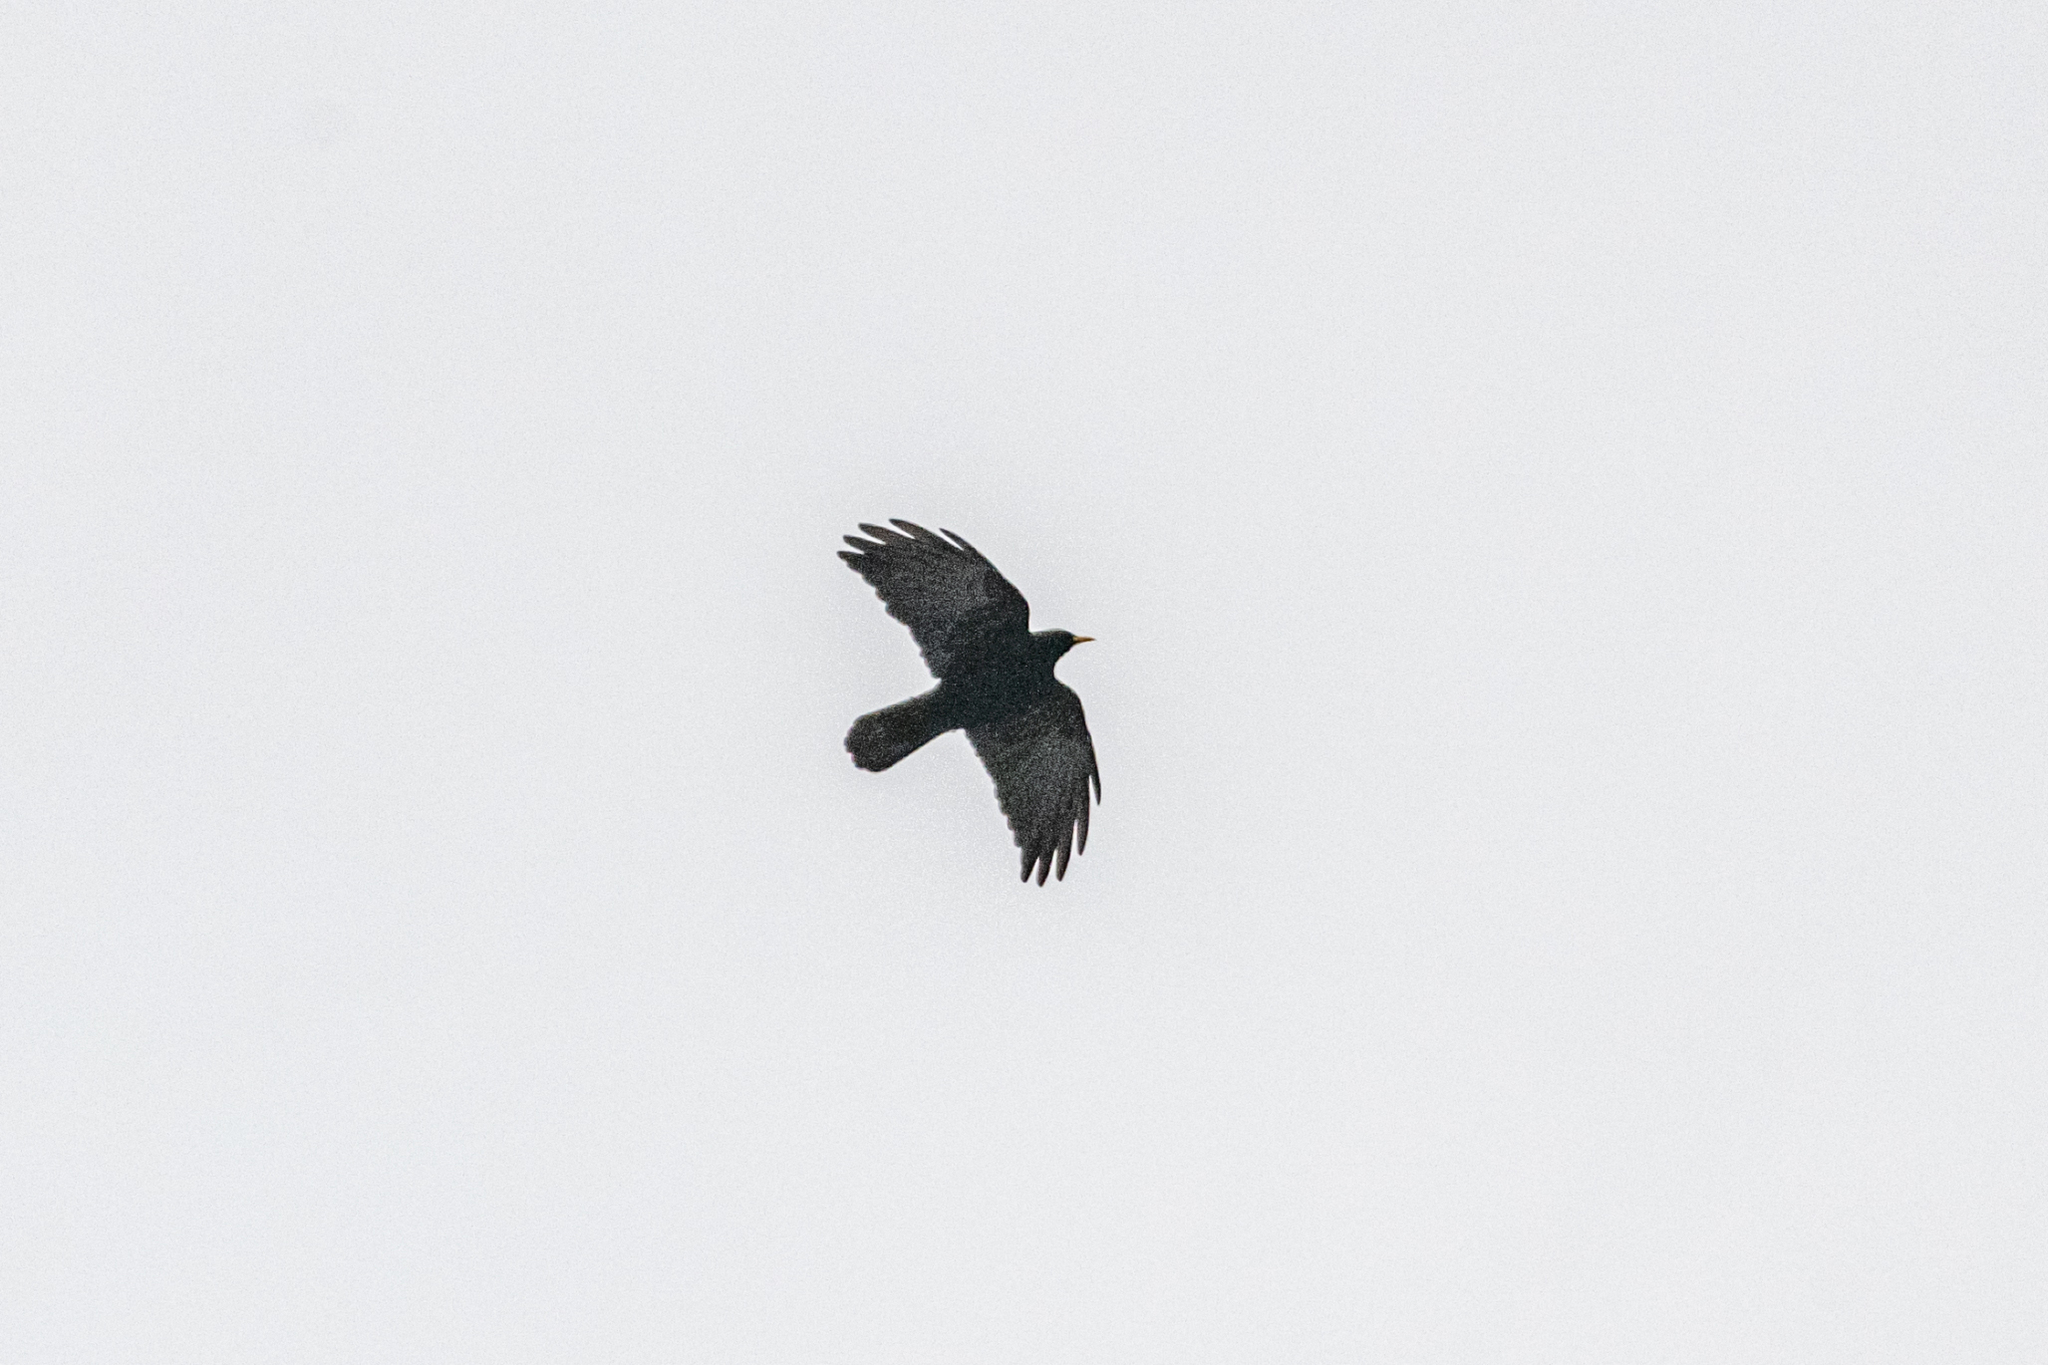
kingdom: Animalia
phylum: Chordata
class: Aves
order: Passeriformes
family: Corvidae
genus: Pyrrhocorax
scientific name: Pyrrhocorax graculus
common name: Alpine chough
